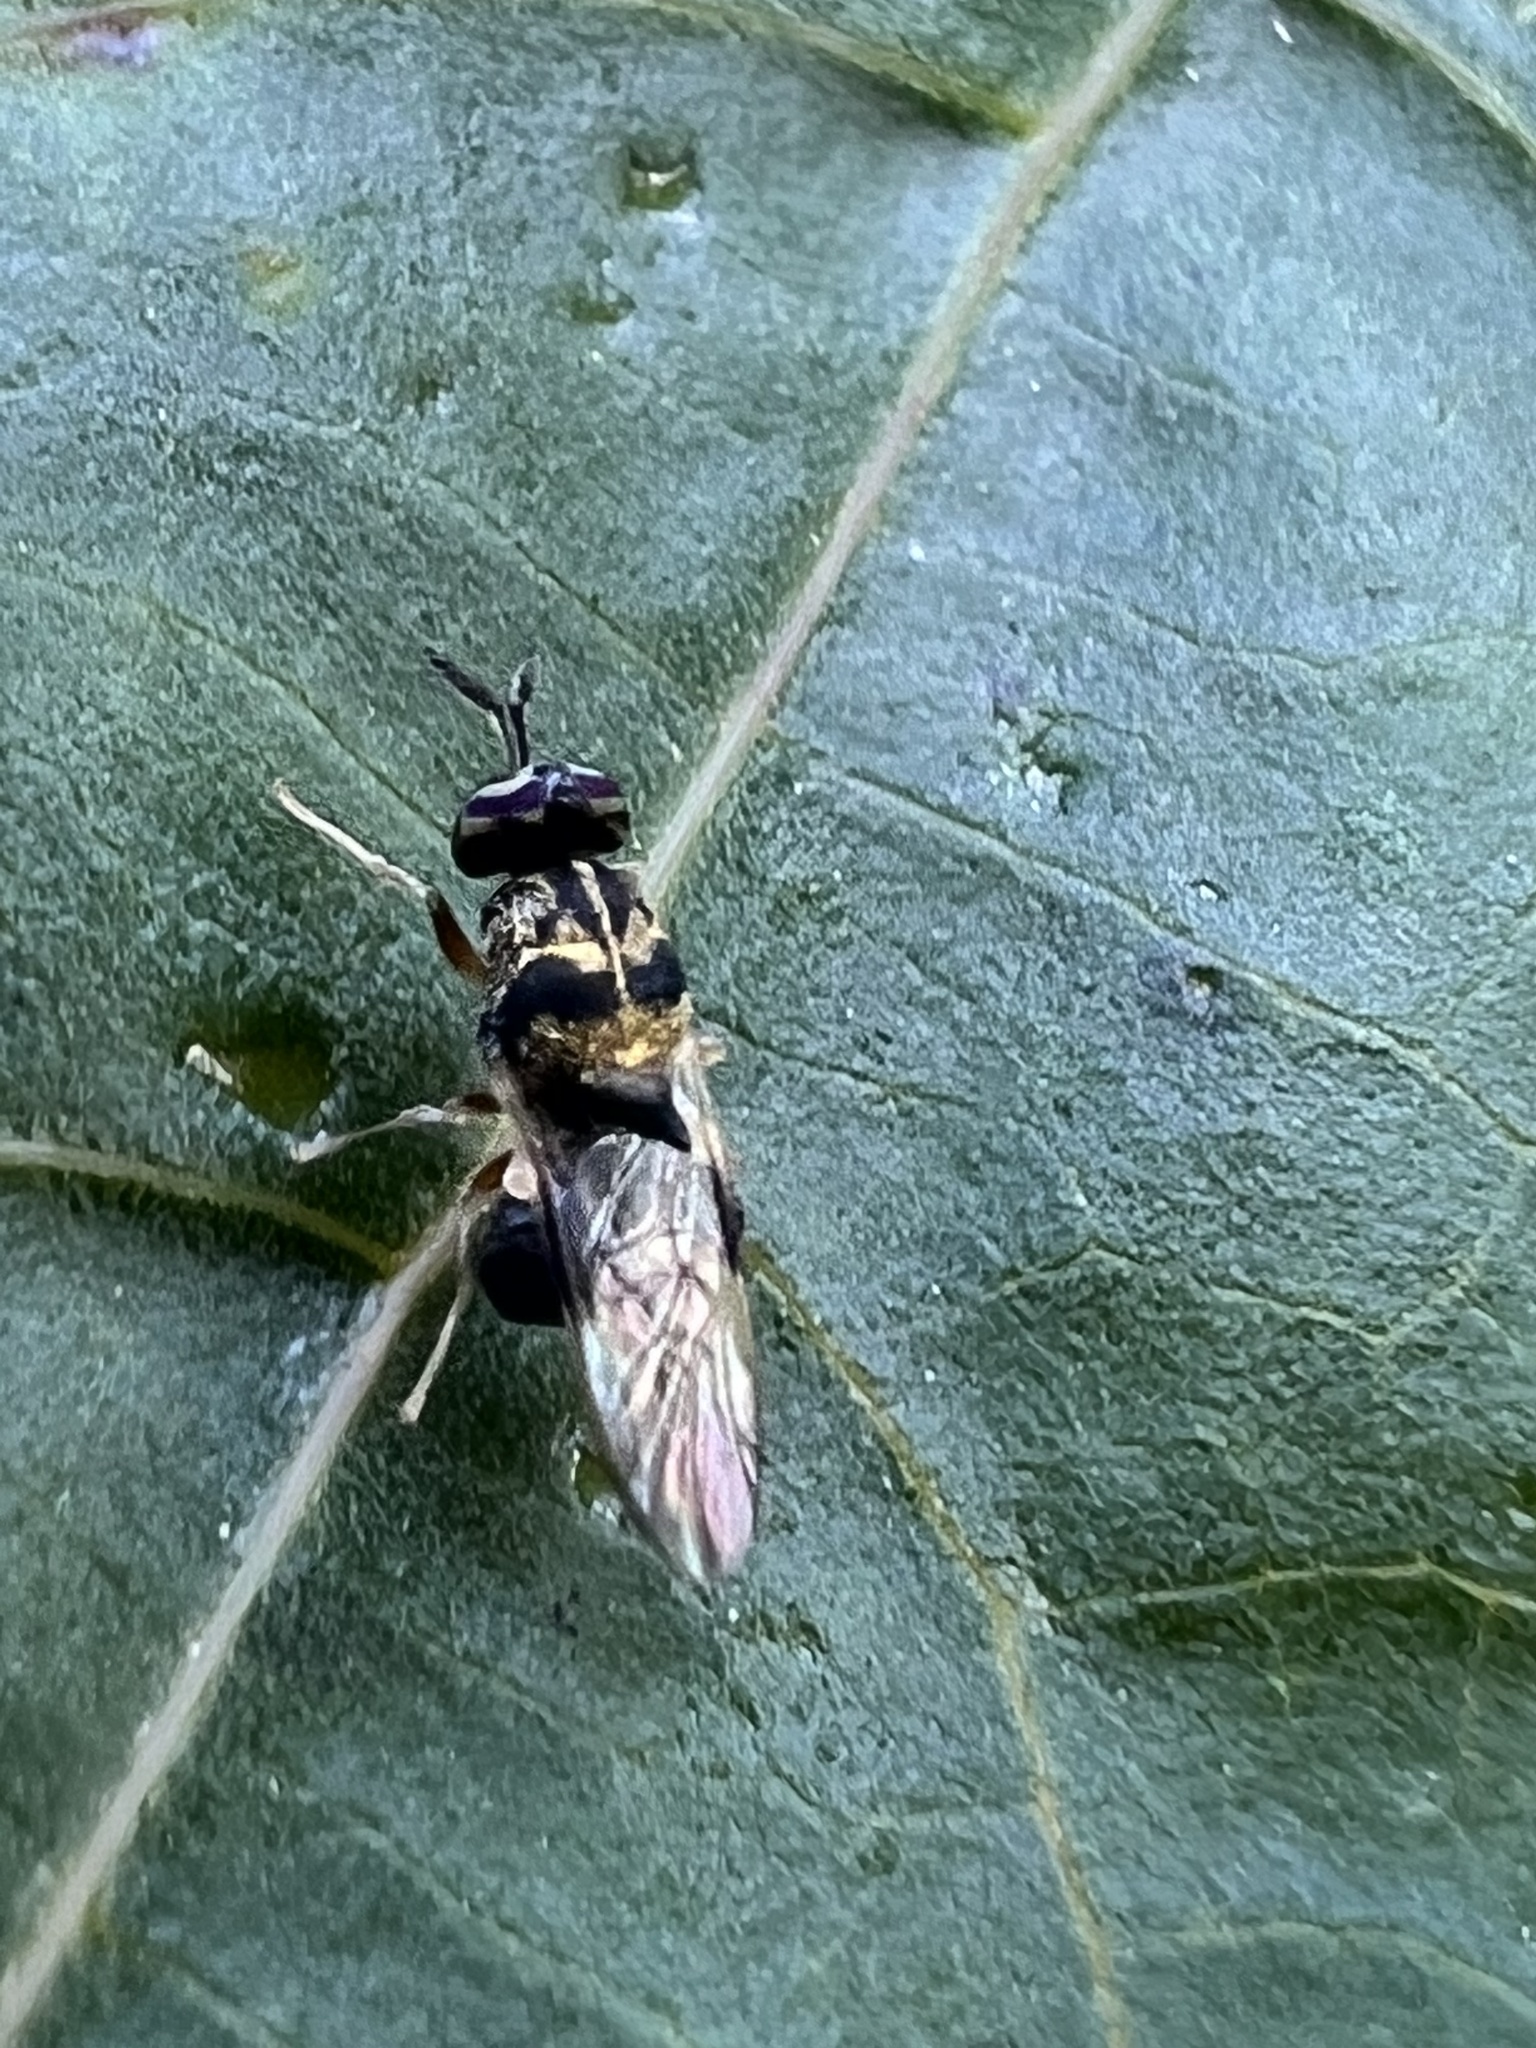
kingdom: Animalia
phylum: Arthropoda
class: Insecta
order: Diptera
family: Stratiomyidae
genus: Chalcidomorphina
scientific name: Chalcidomorphina aurata
